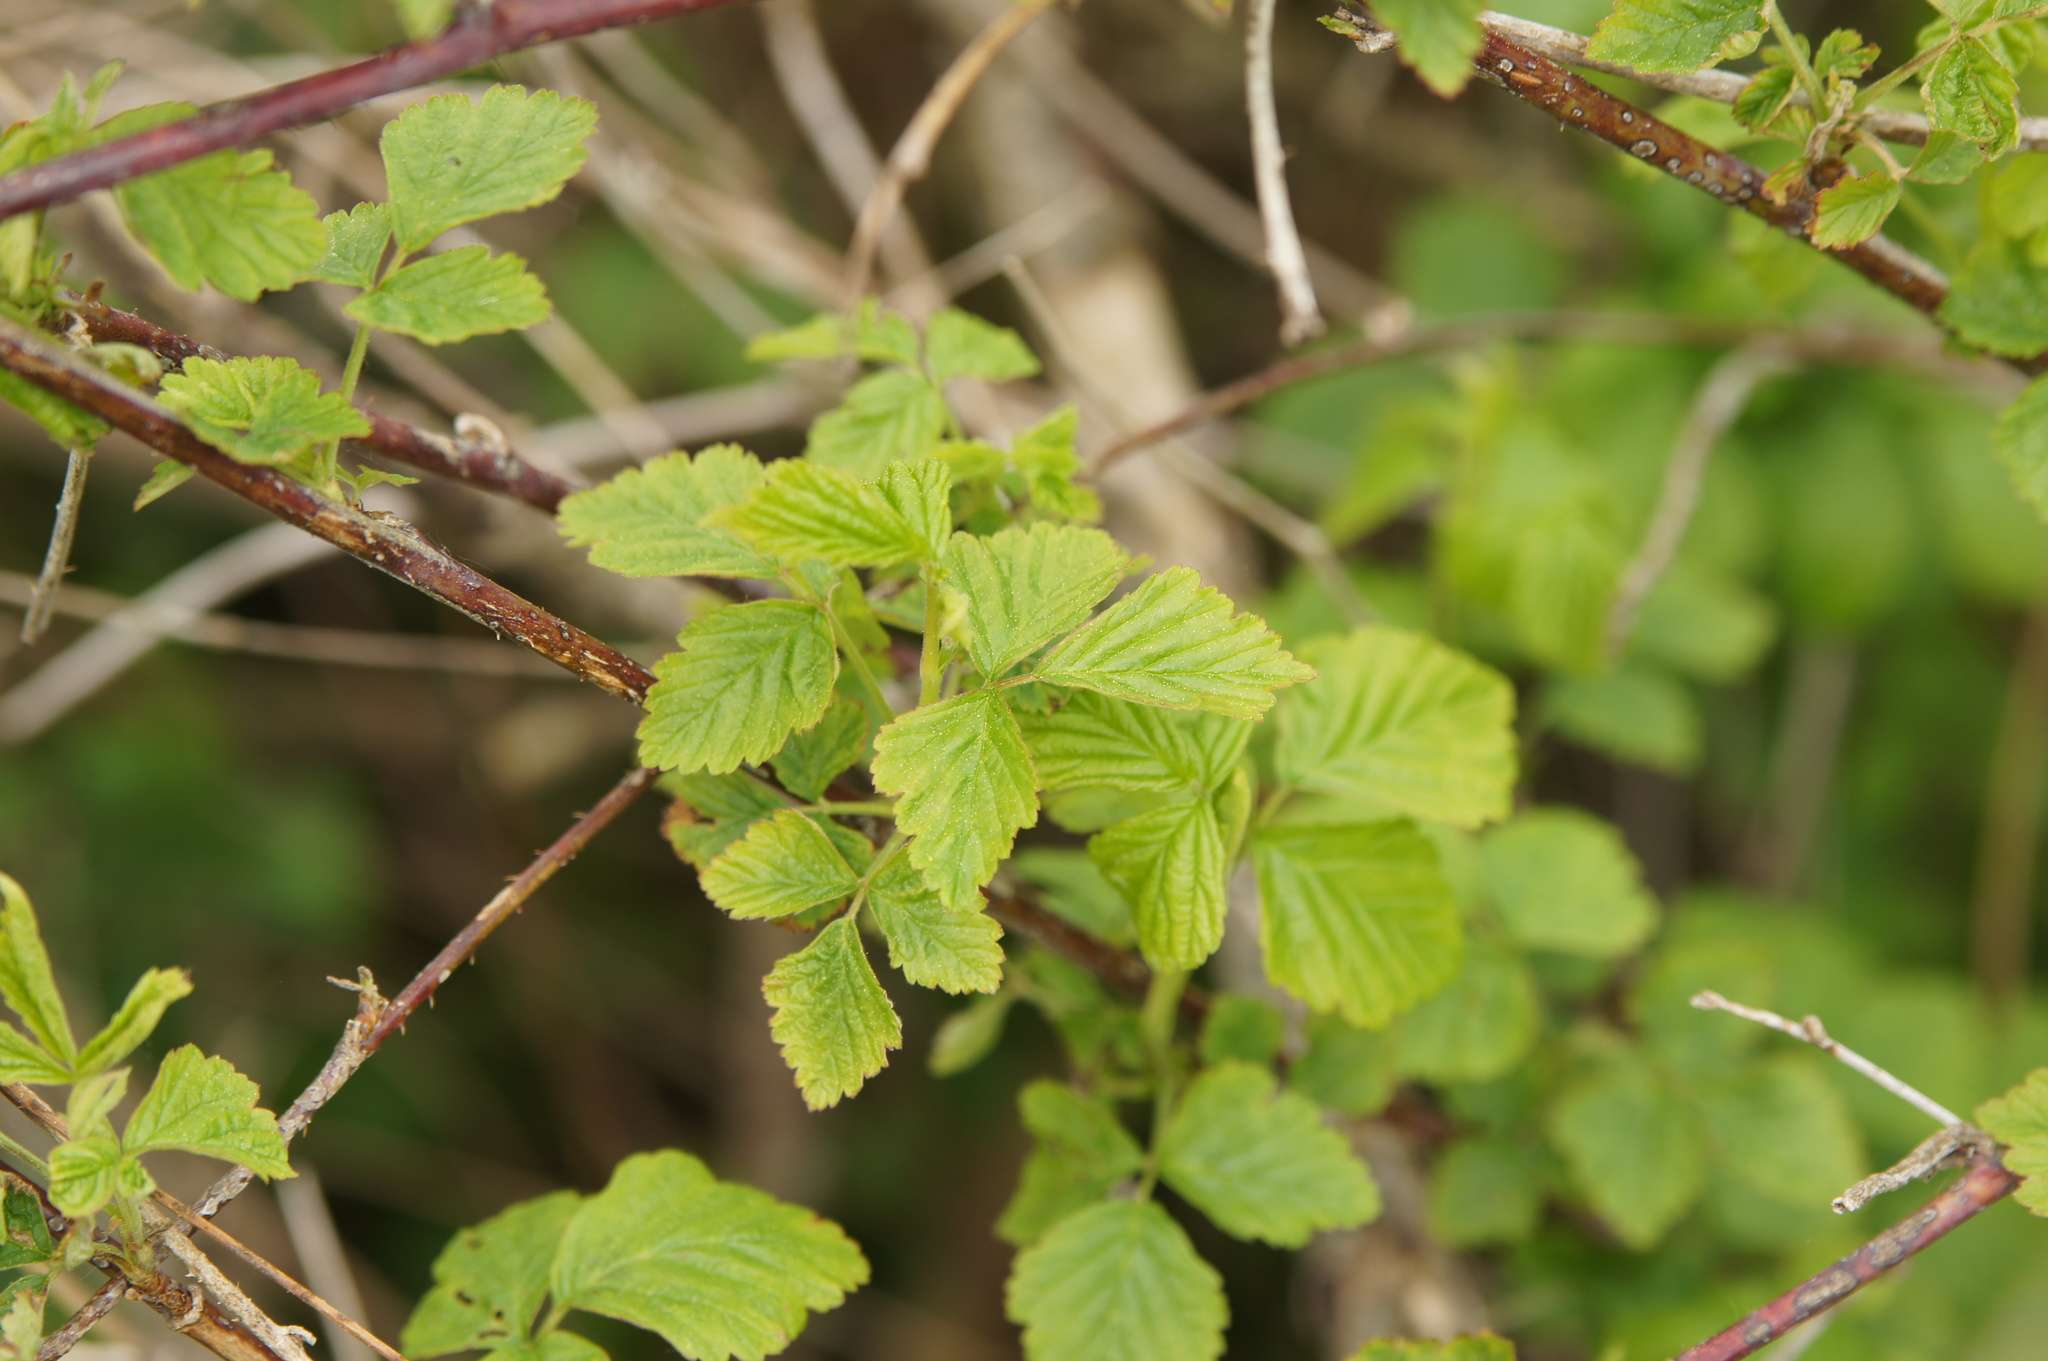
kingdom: Plantae
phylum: Tracheophyta
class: Magnoliopsida
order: Rosales
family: Rosaceae
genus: Rubus
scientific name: Rubus caesius
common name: Dewberry
